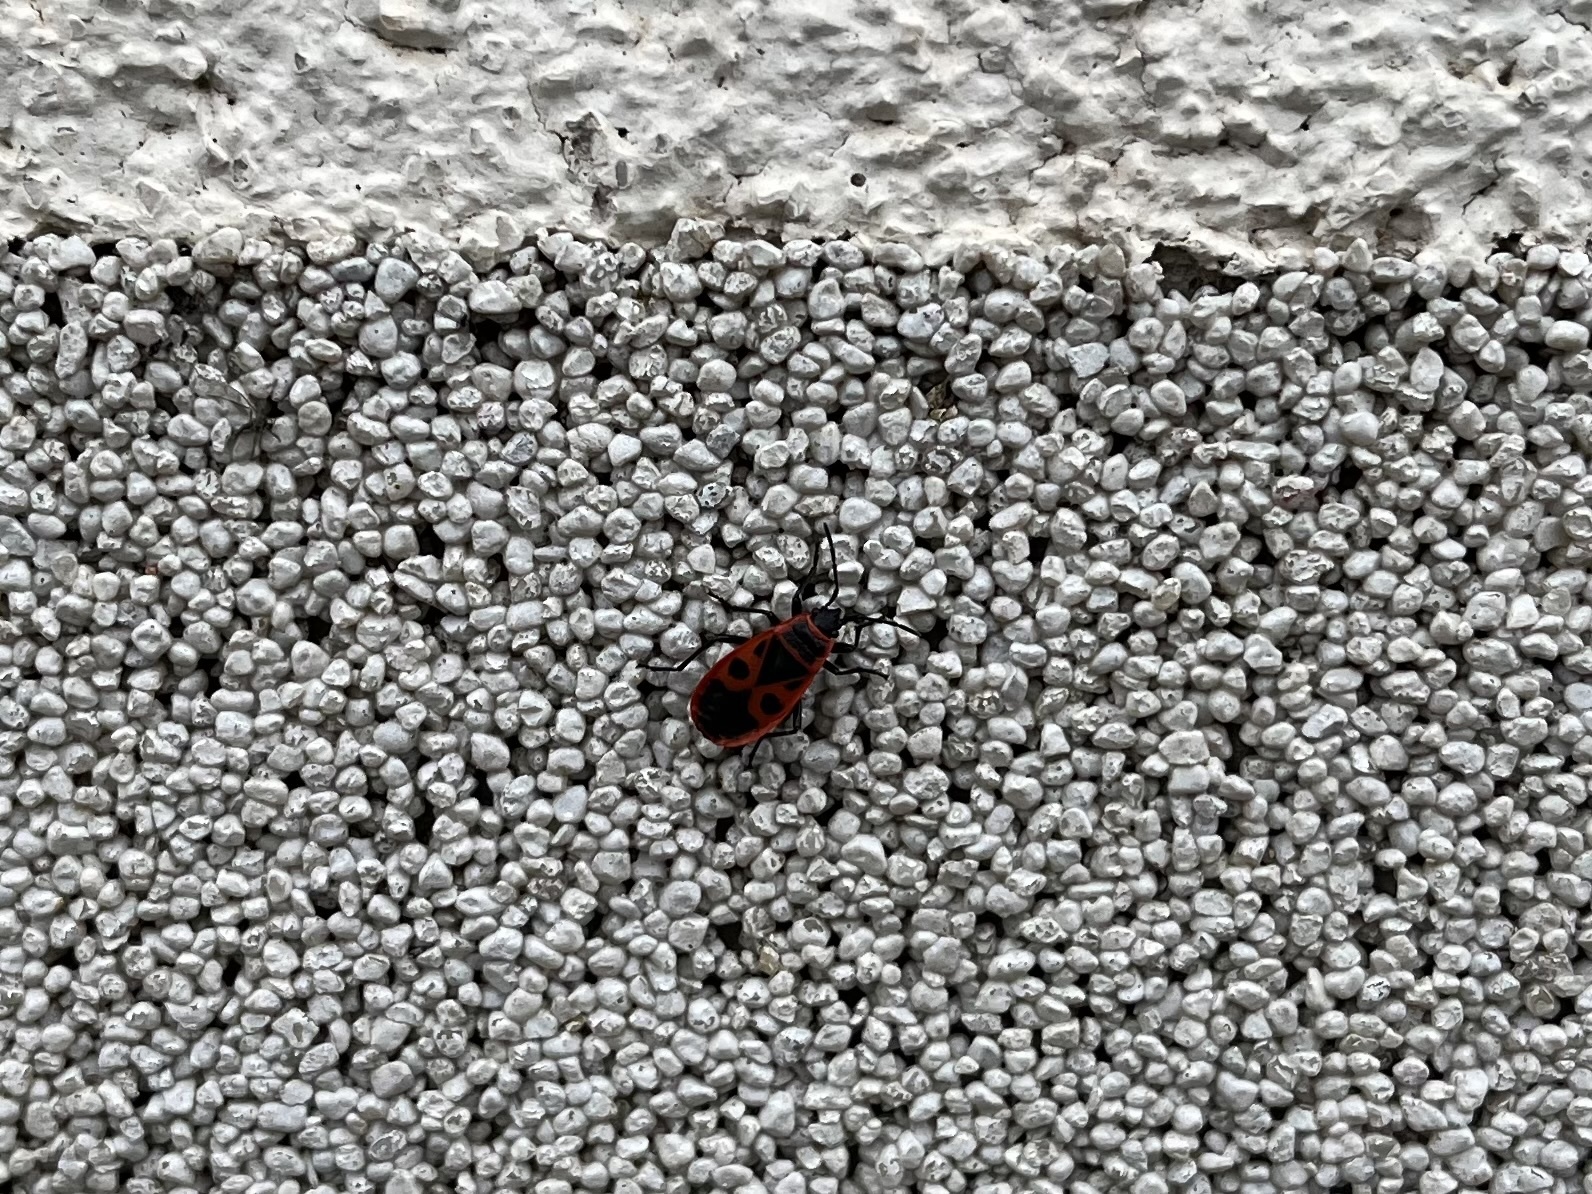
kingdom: Animalia
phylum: Arthropoda
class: Insecta
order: Hemiptera
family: Pyrrhocoridae
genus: Pyrrhocoris
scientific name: Pyrrhocoris apterus
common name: Firebug
